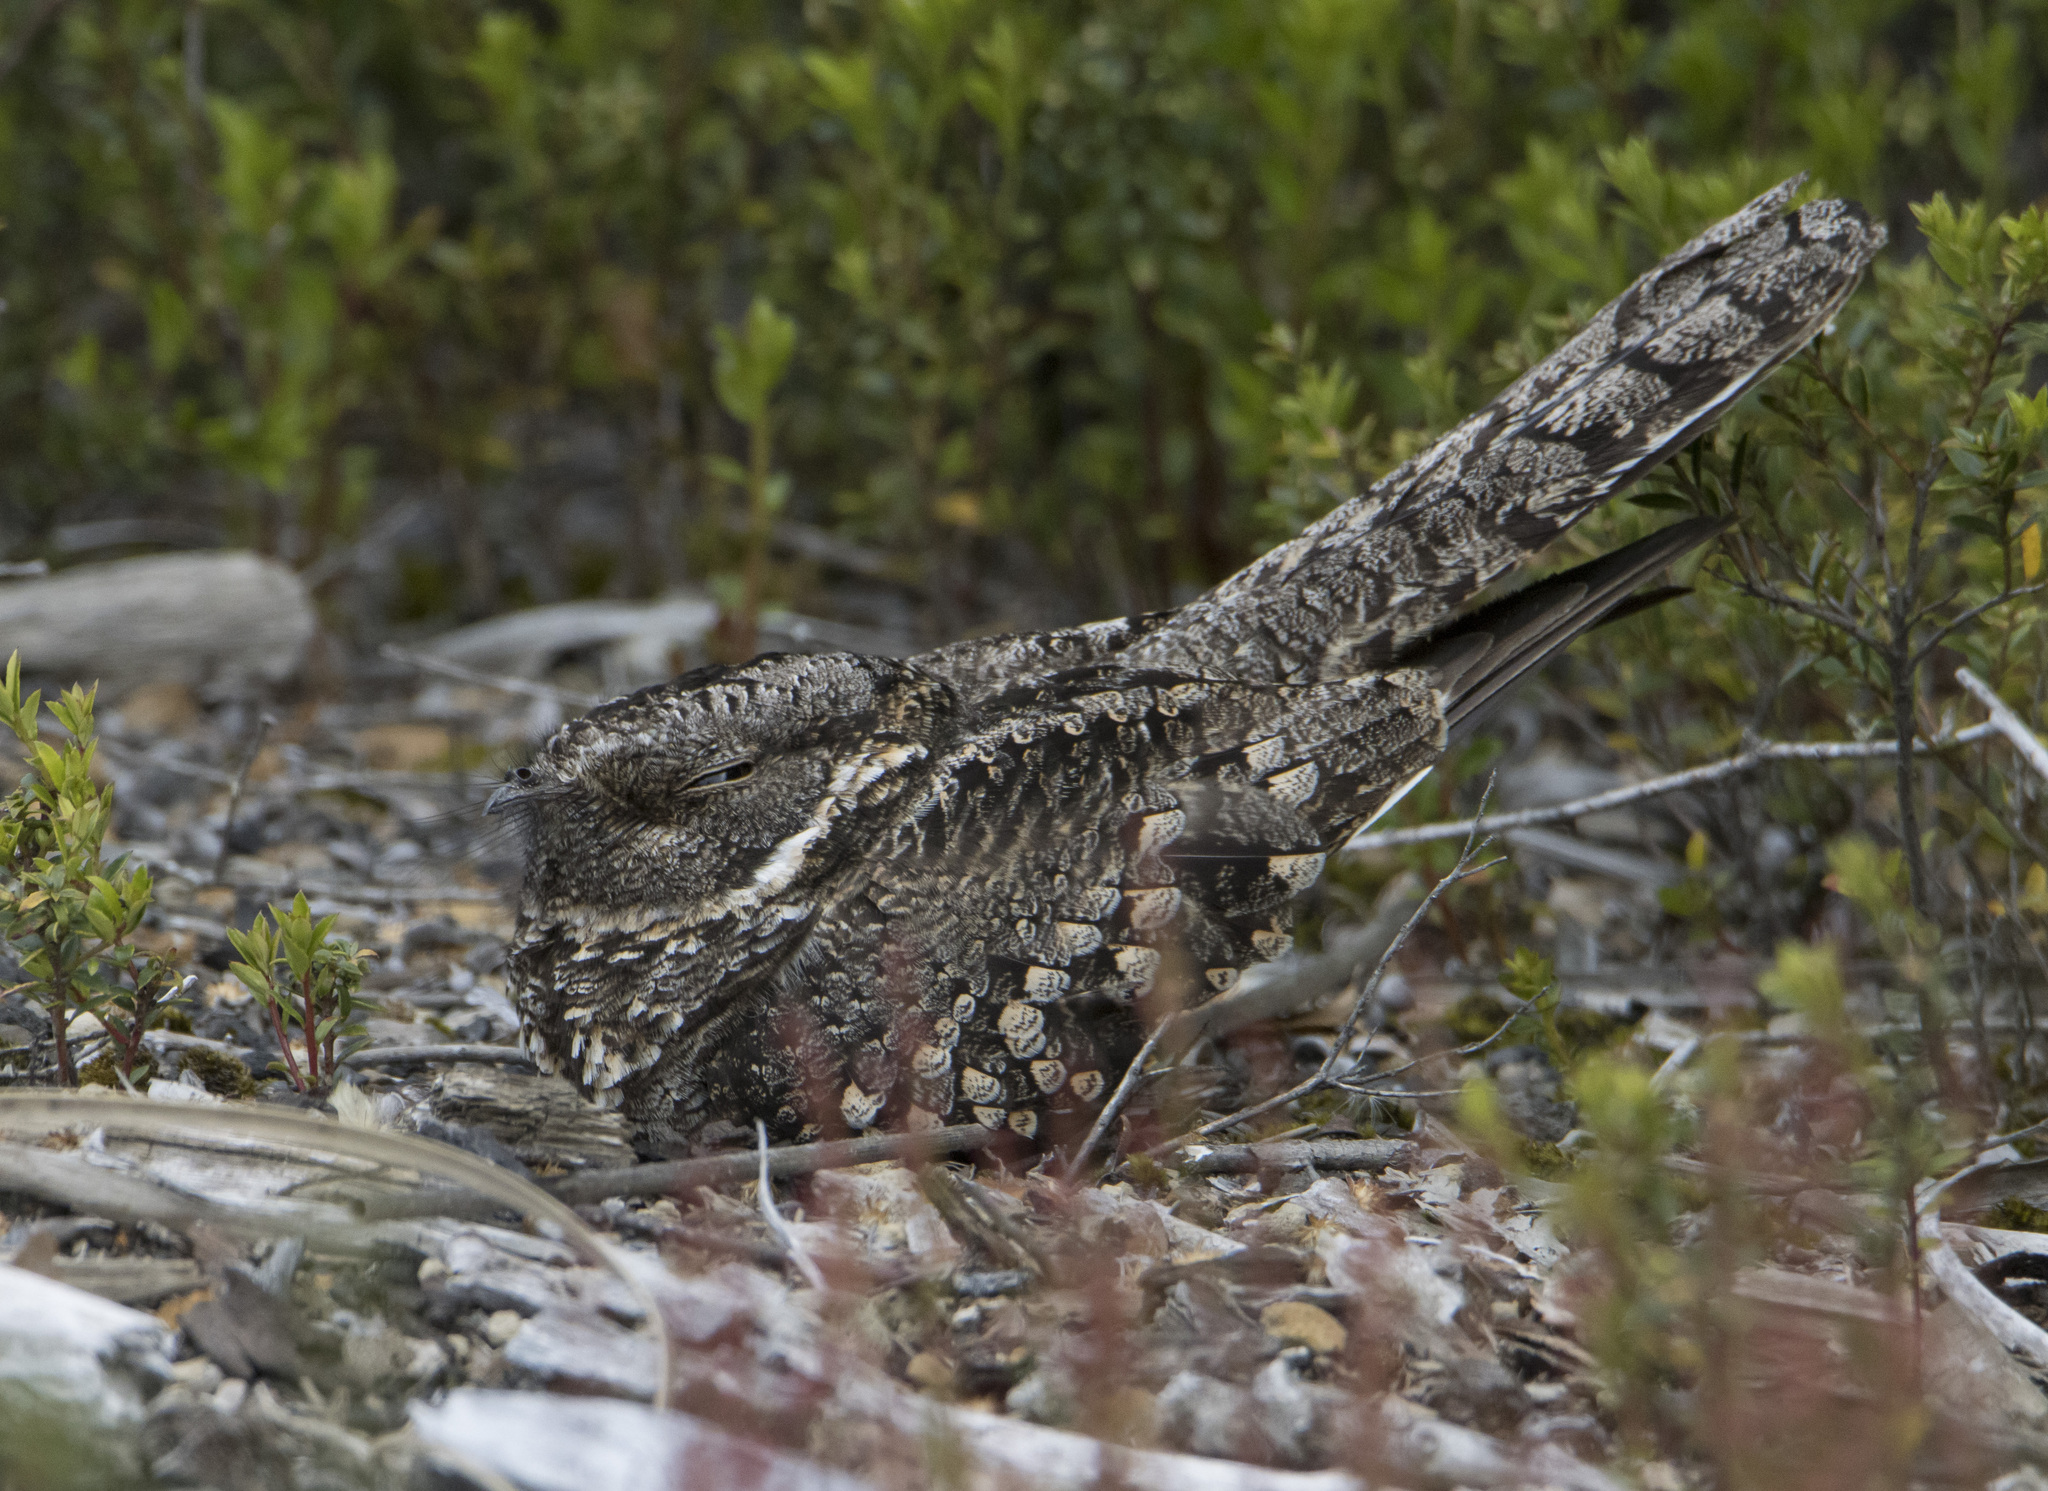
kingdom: Animalia
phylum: Chordata
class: Aves
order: Caprimulgiformes
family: Caprimulgidae
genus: Systellura
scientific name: Systellura longirostris
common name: Band-winged nightjar
